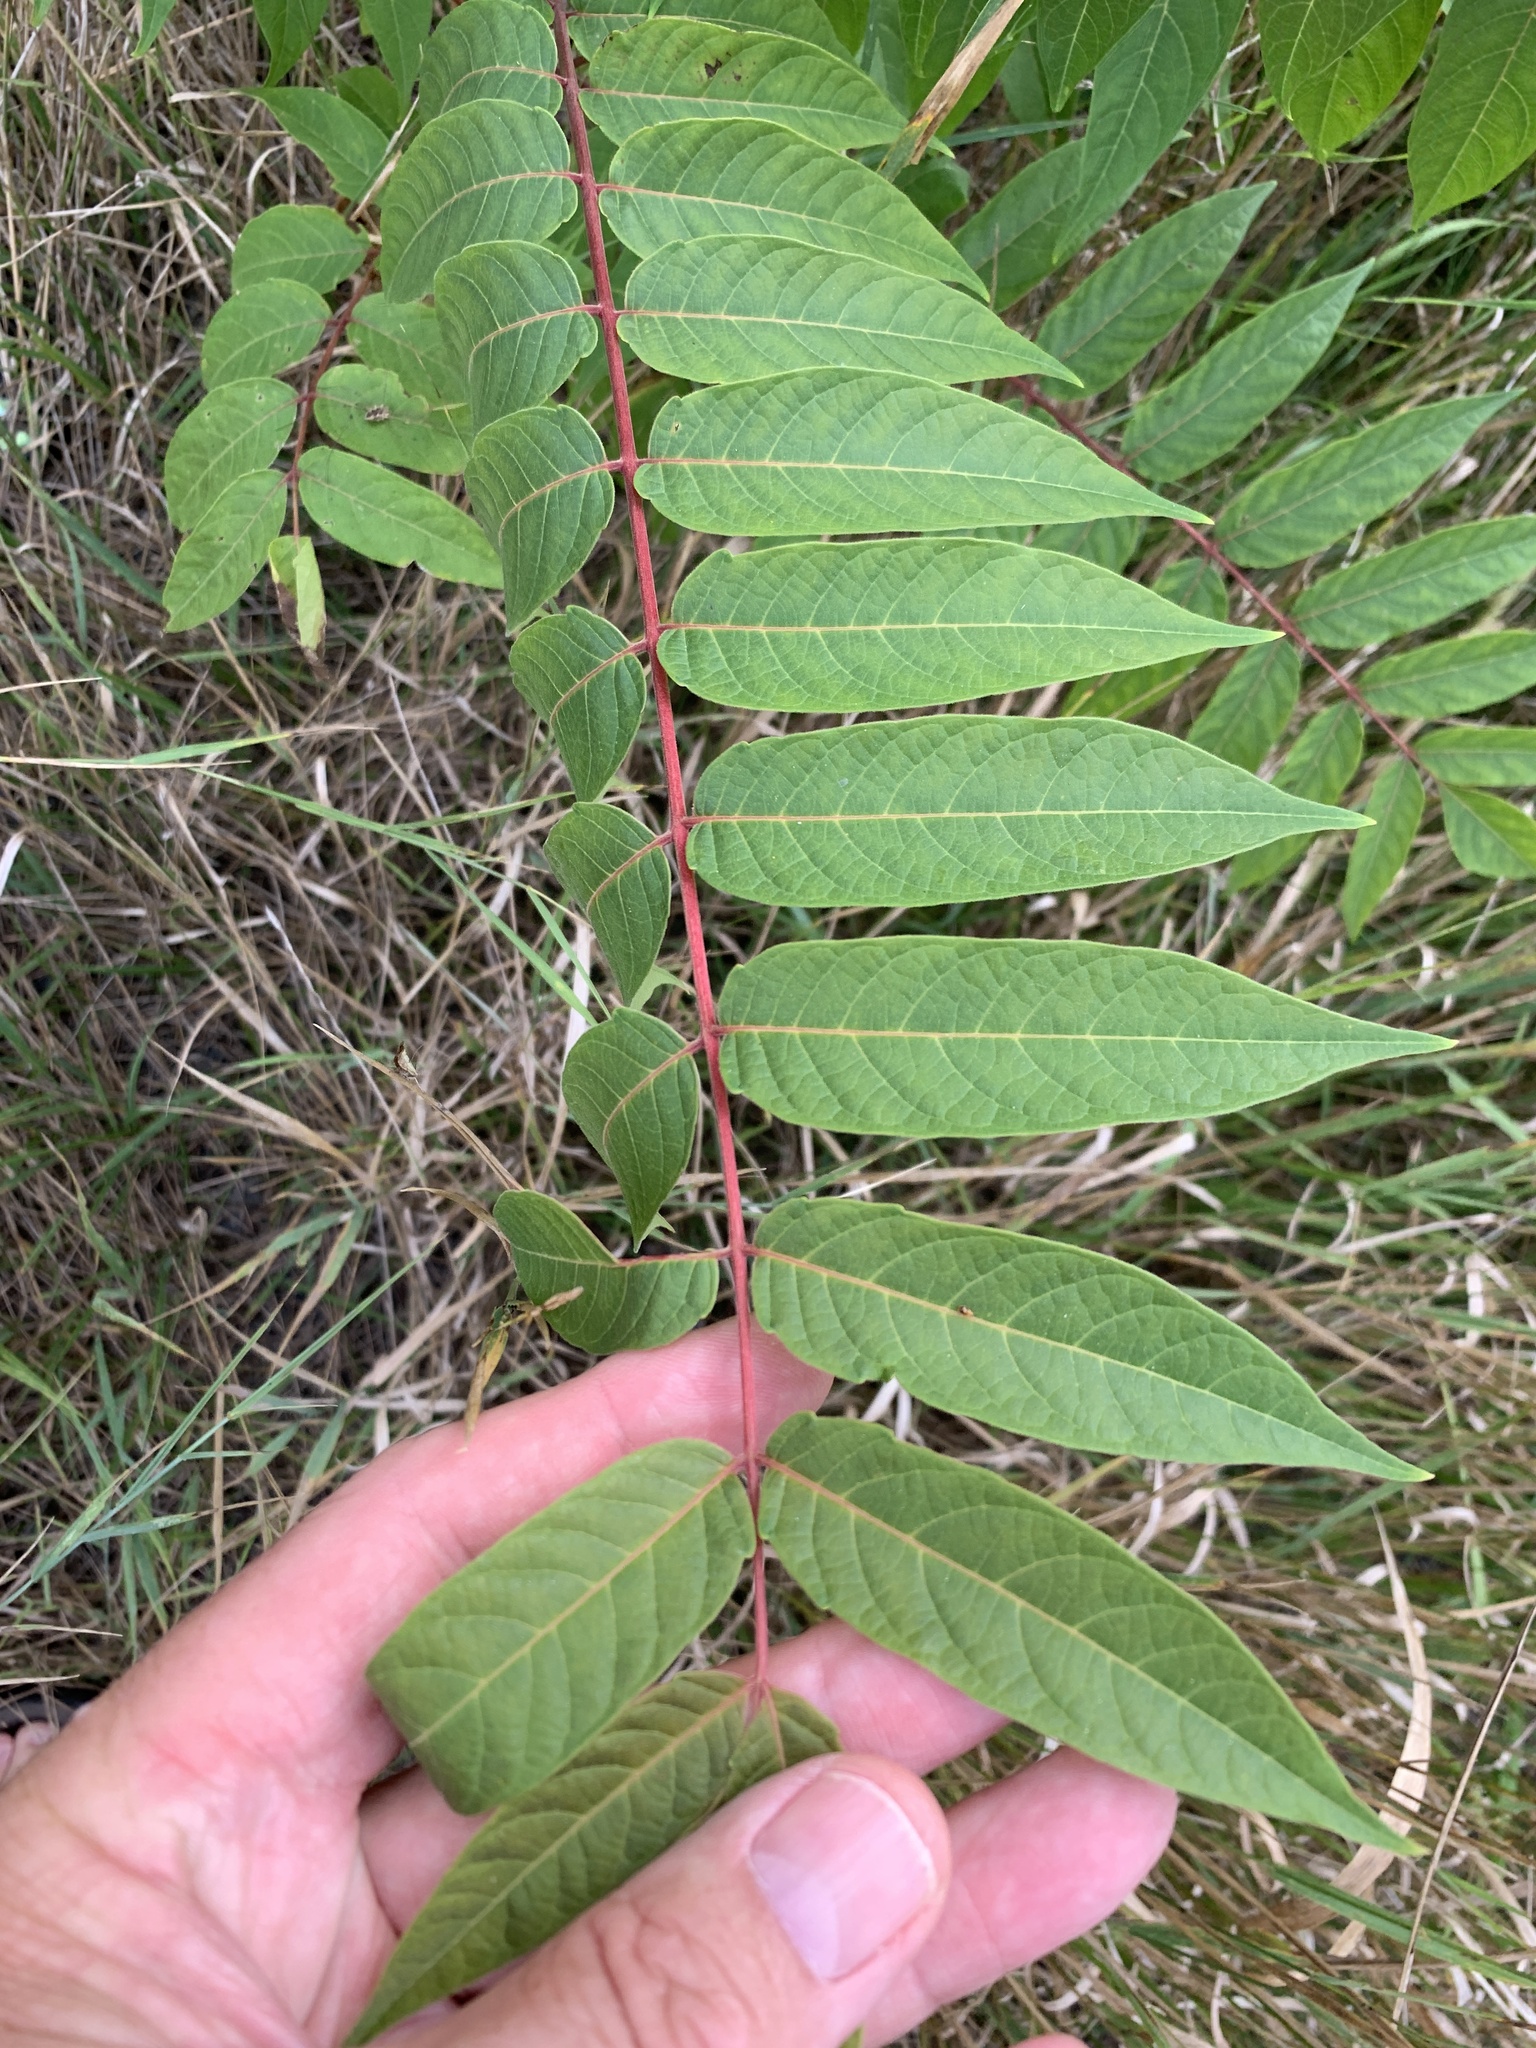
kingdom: Plantae
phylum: Tracheophyta
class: Magnoliopsida
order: Sapindales
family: Simaroubaceae
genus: Ailanthus
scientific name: Ailanthus altissima
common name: Tree-of-heaven
